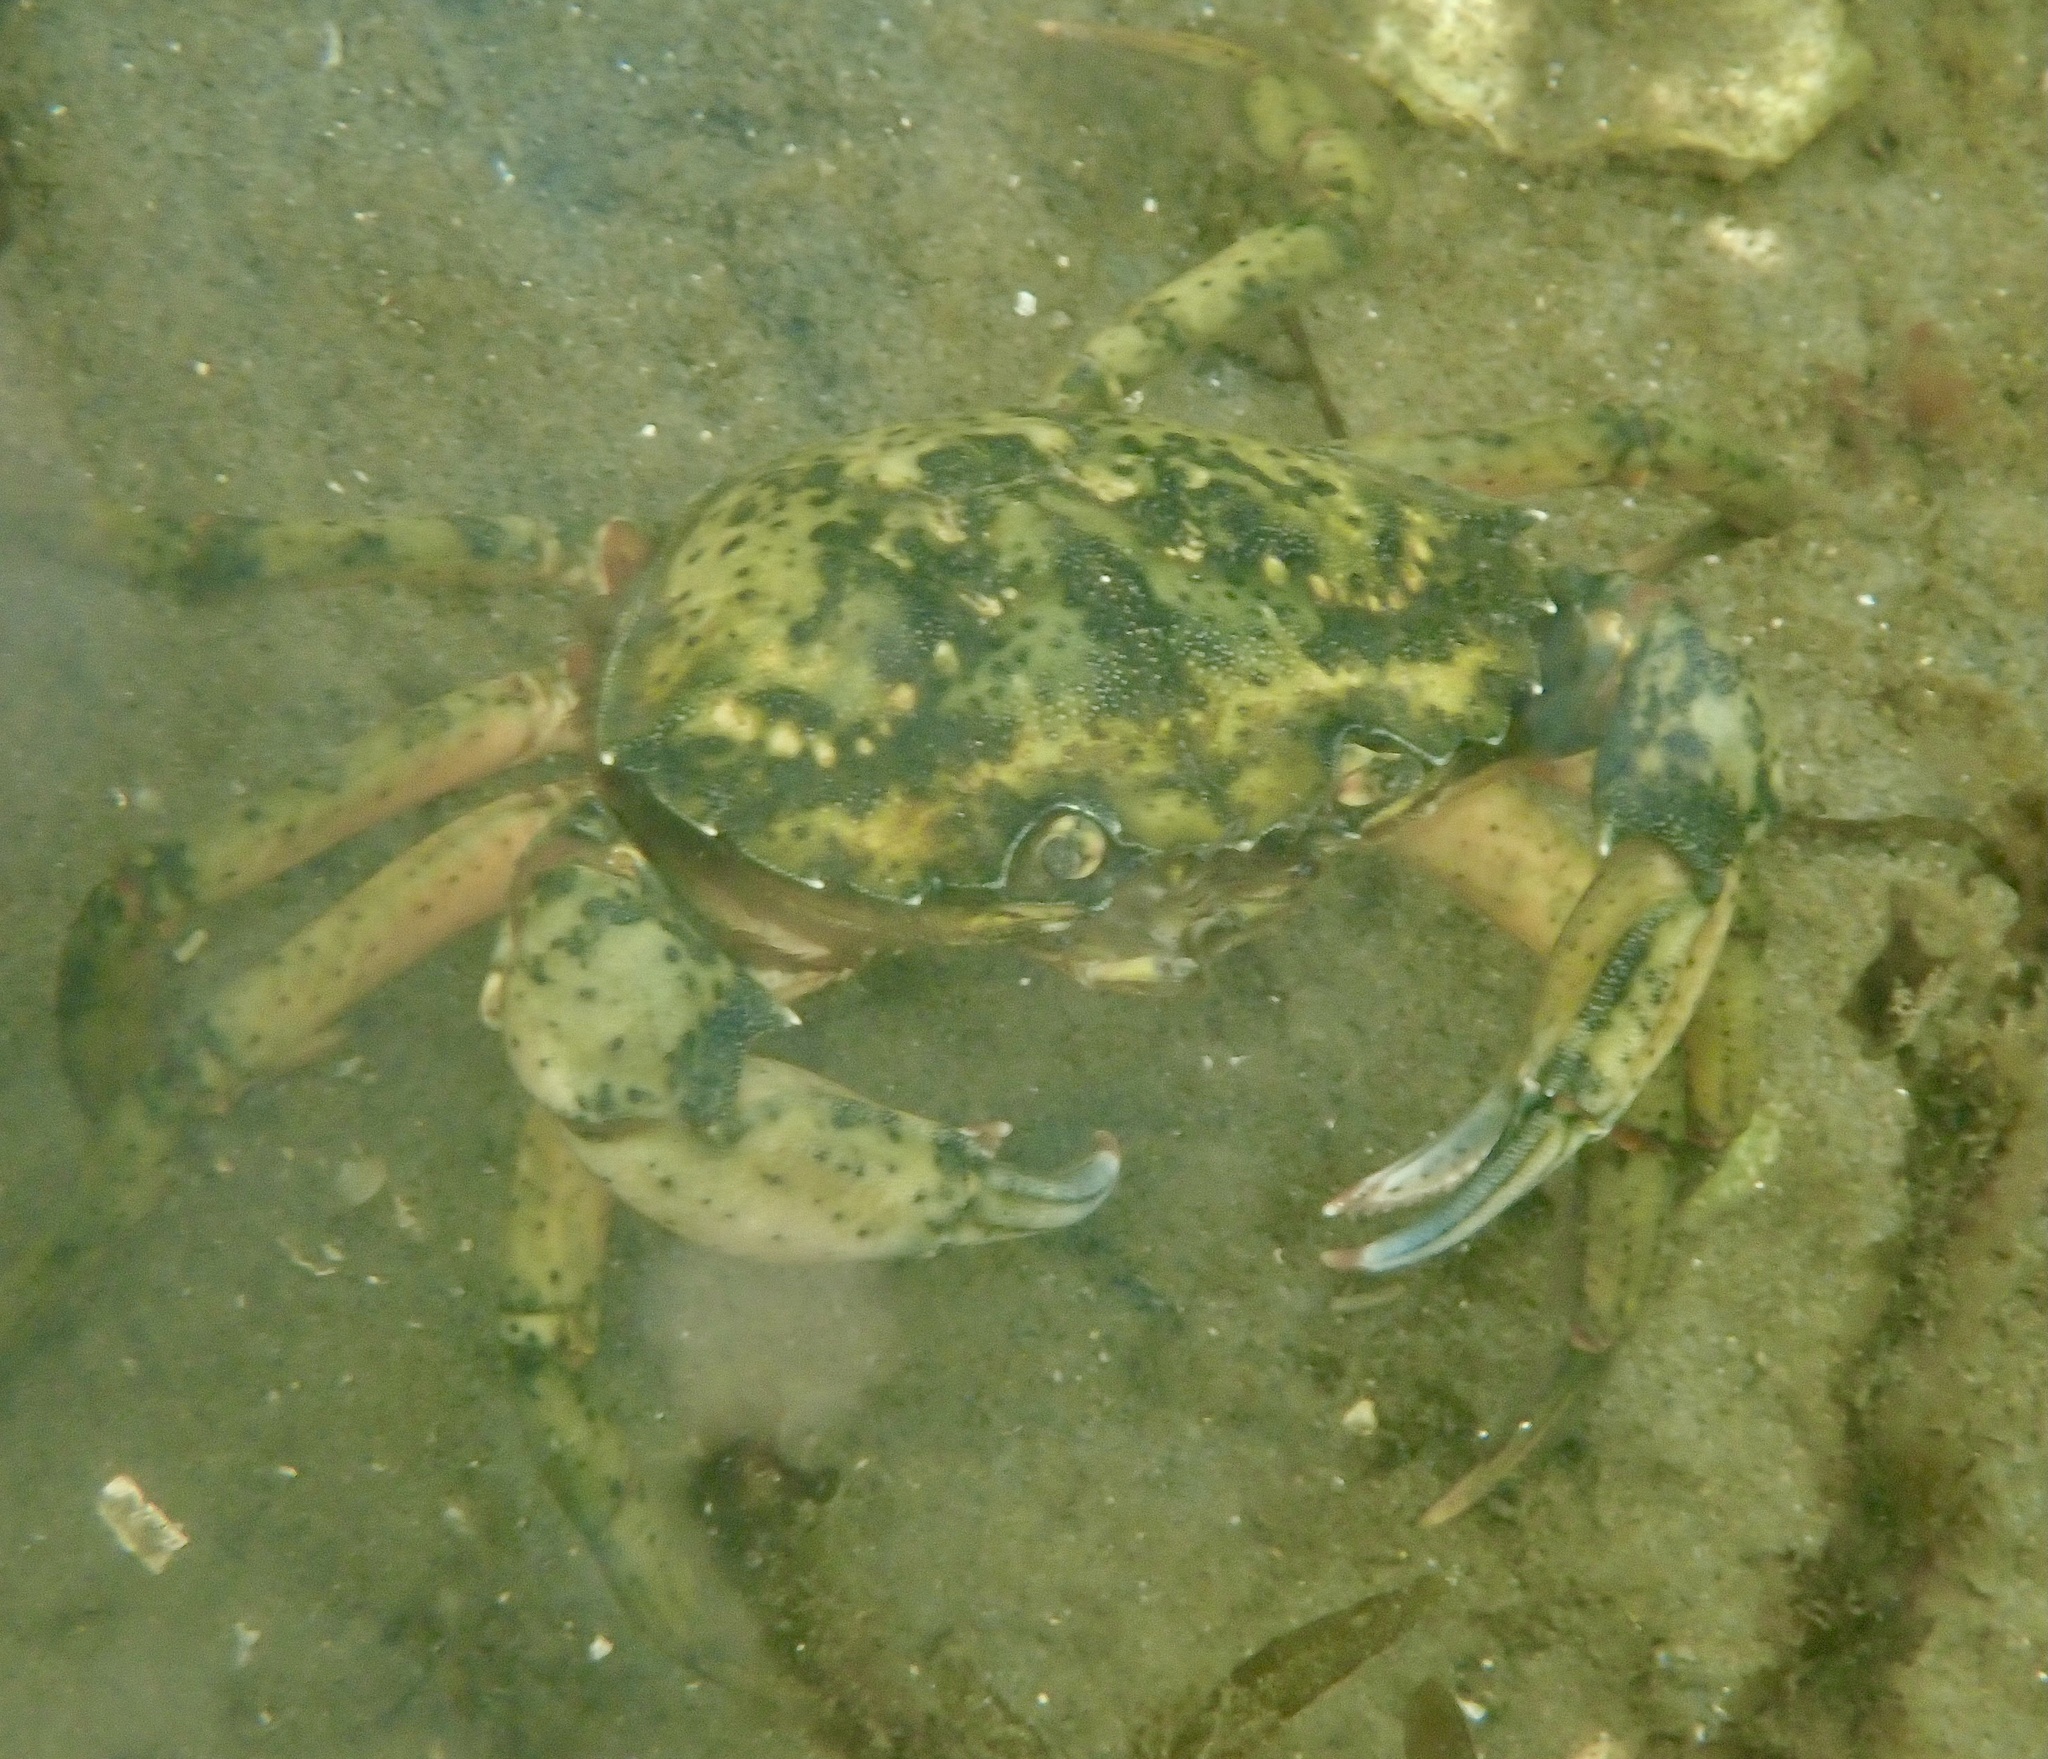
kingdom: Animalia
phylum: Arthropoda
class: Malacostraca
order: Decapoda
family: Carcinidae
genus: Carcinus
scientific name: Carcinus maenas
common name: European green crab
